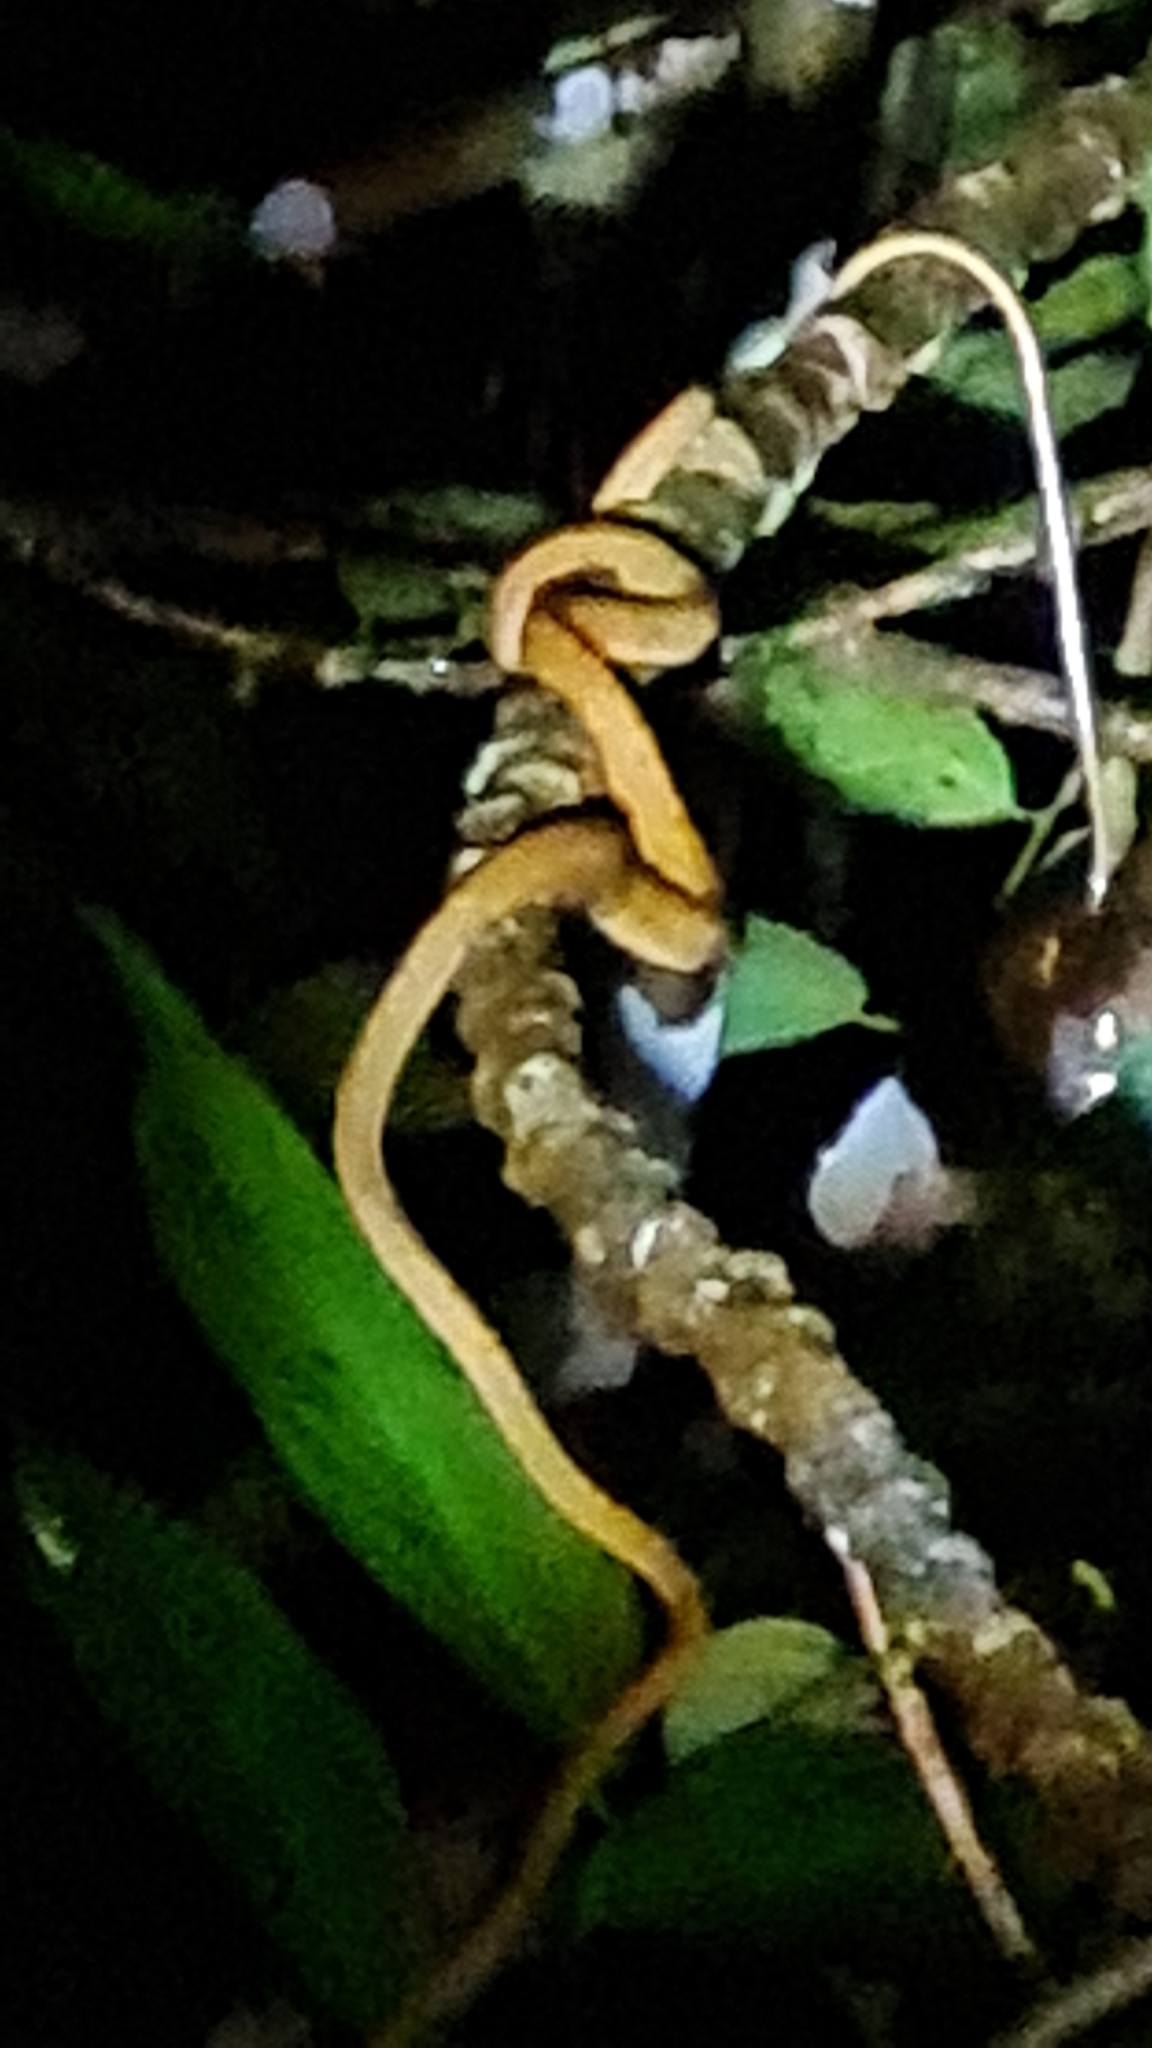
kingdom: Animalia
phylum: Chordata
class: Squamata
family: Colubridae
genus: Imantodes
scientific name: Imantodes inornatus
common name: Western tree snake
